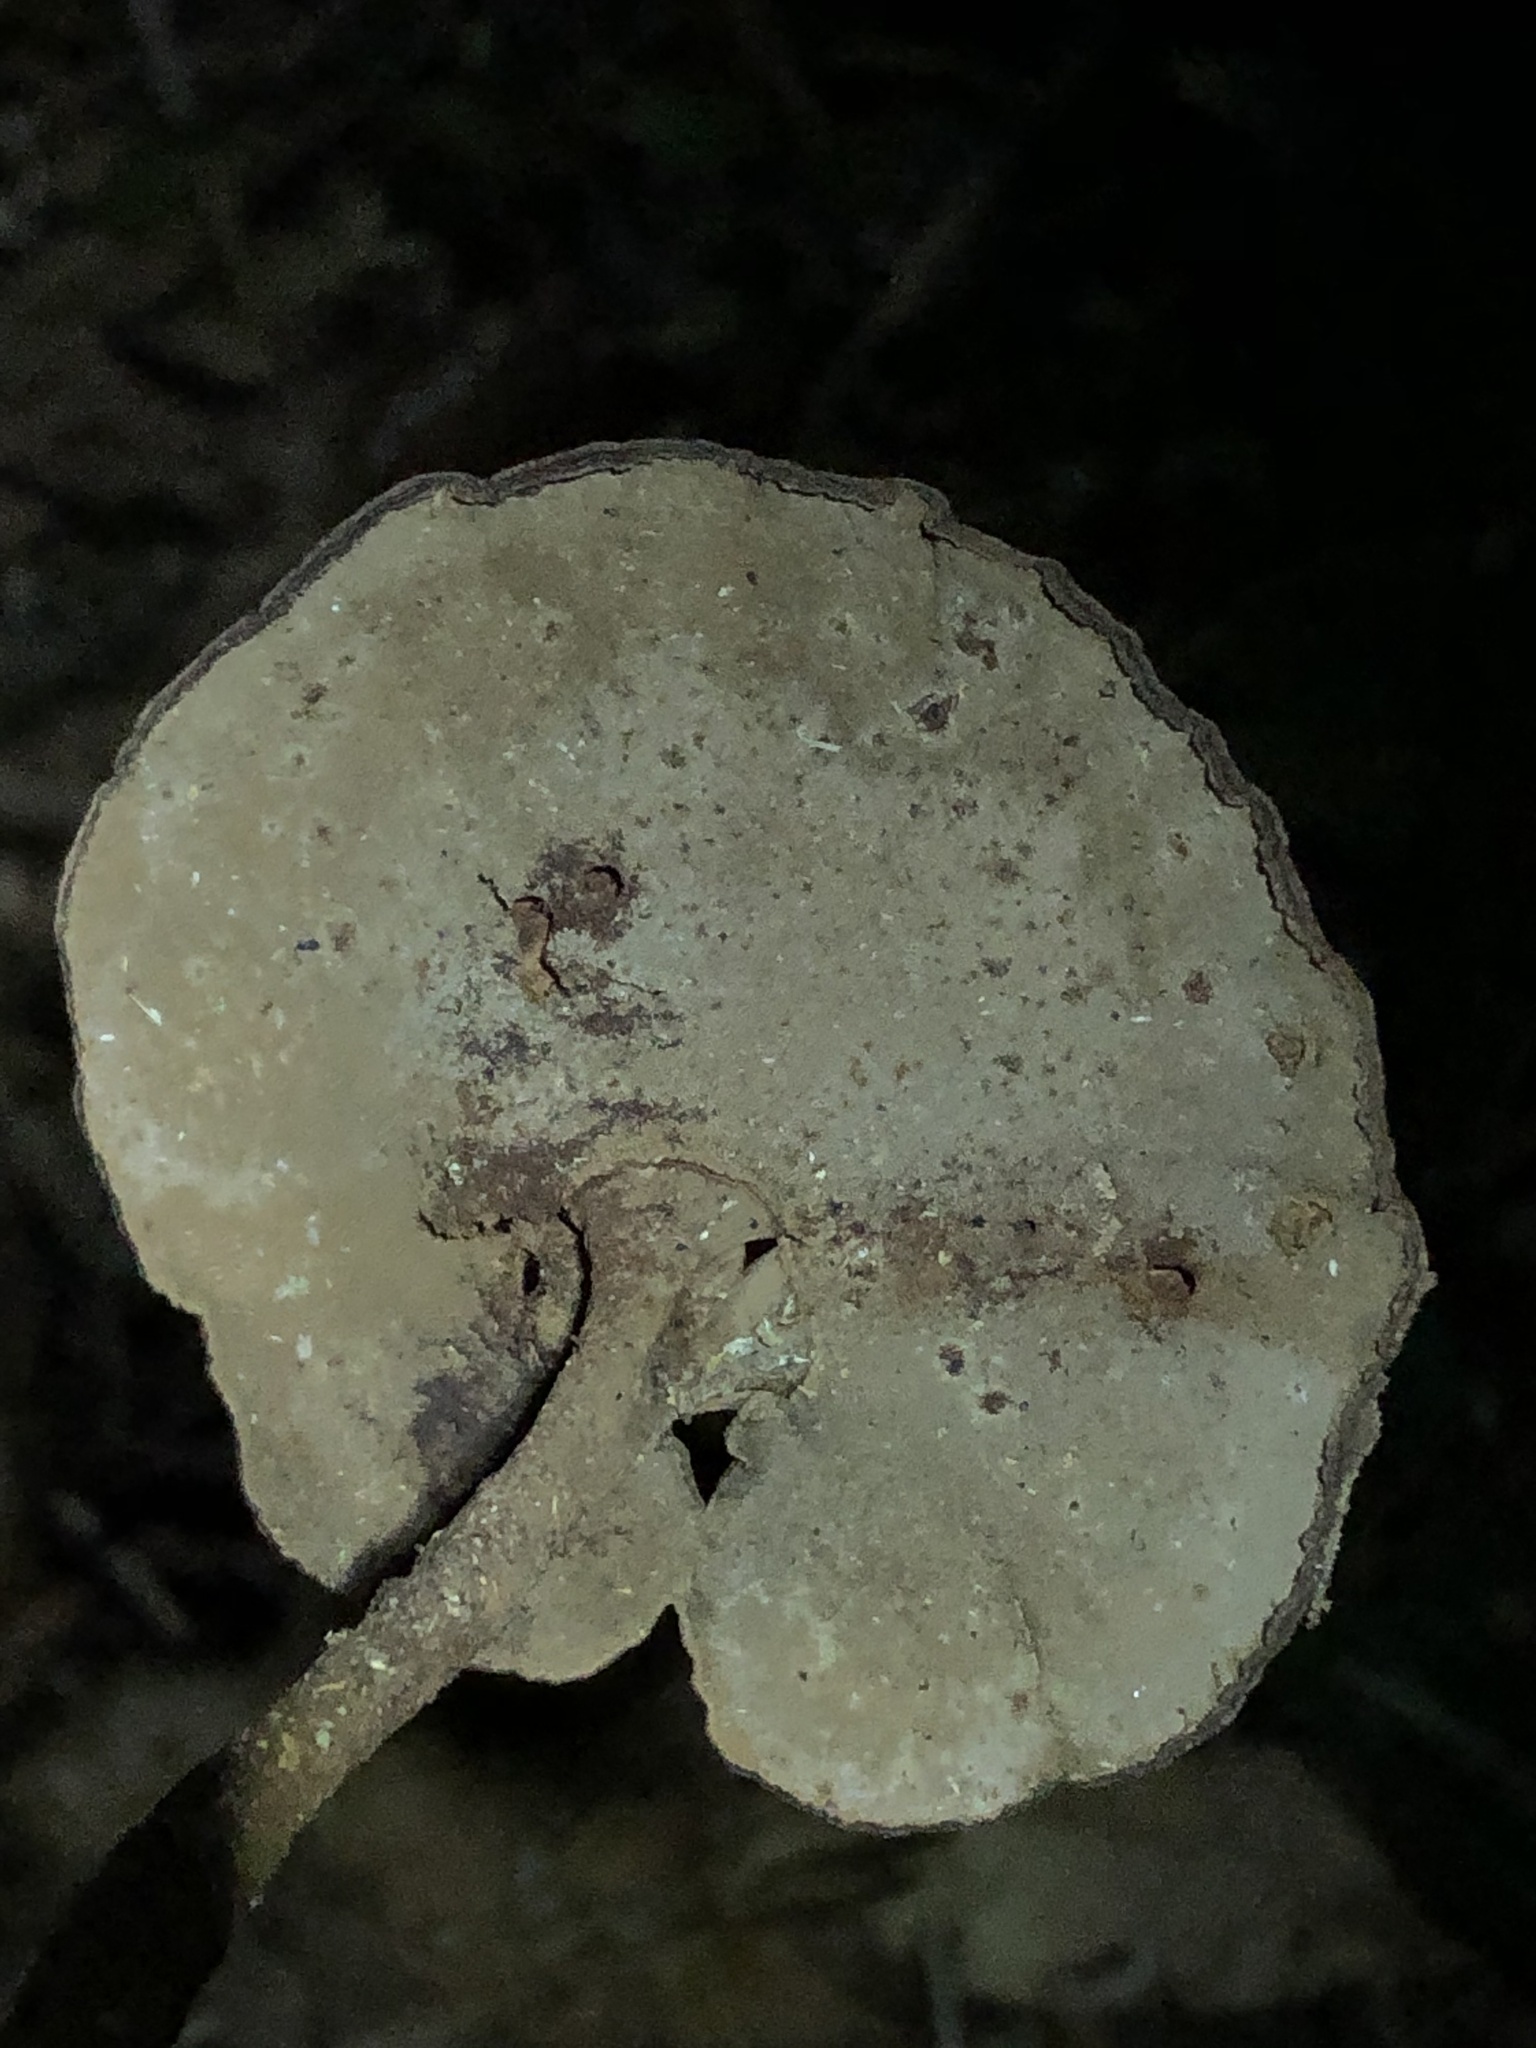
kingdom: Fungi
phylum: Basidiomycota
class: Agaricomycetes
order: Polyporales
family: Polyporaceae
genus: Lentinus
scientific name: Lentinus substrictus
